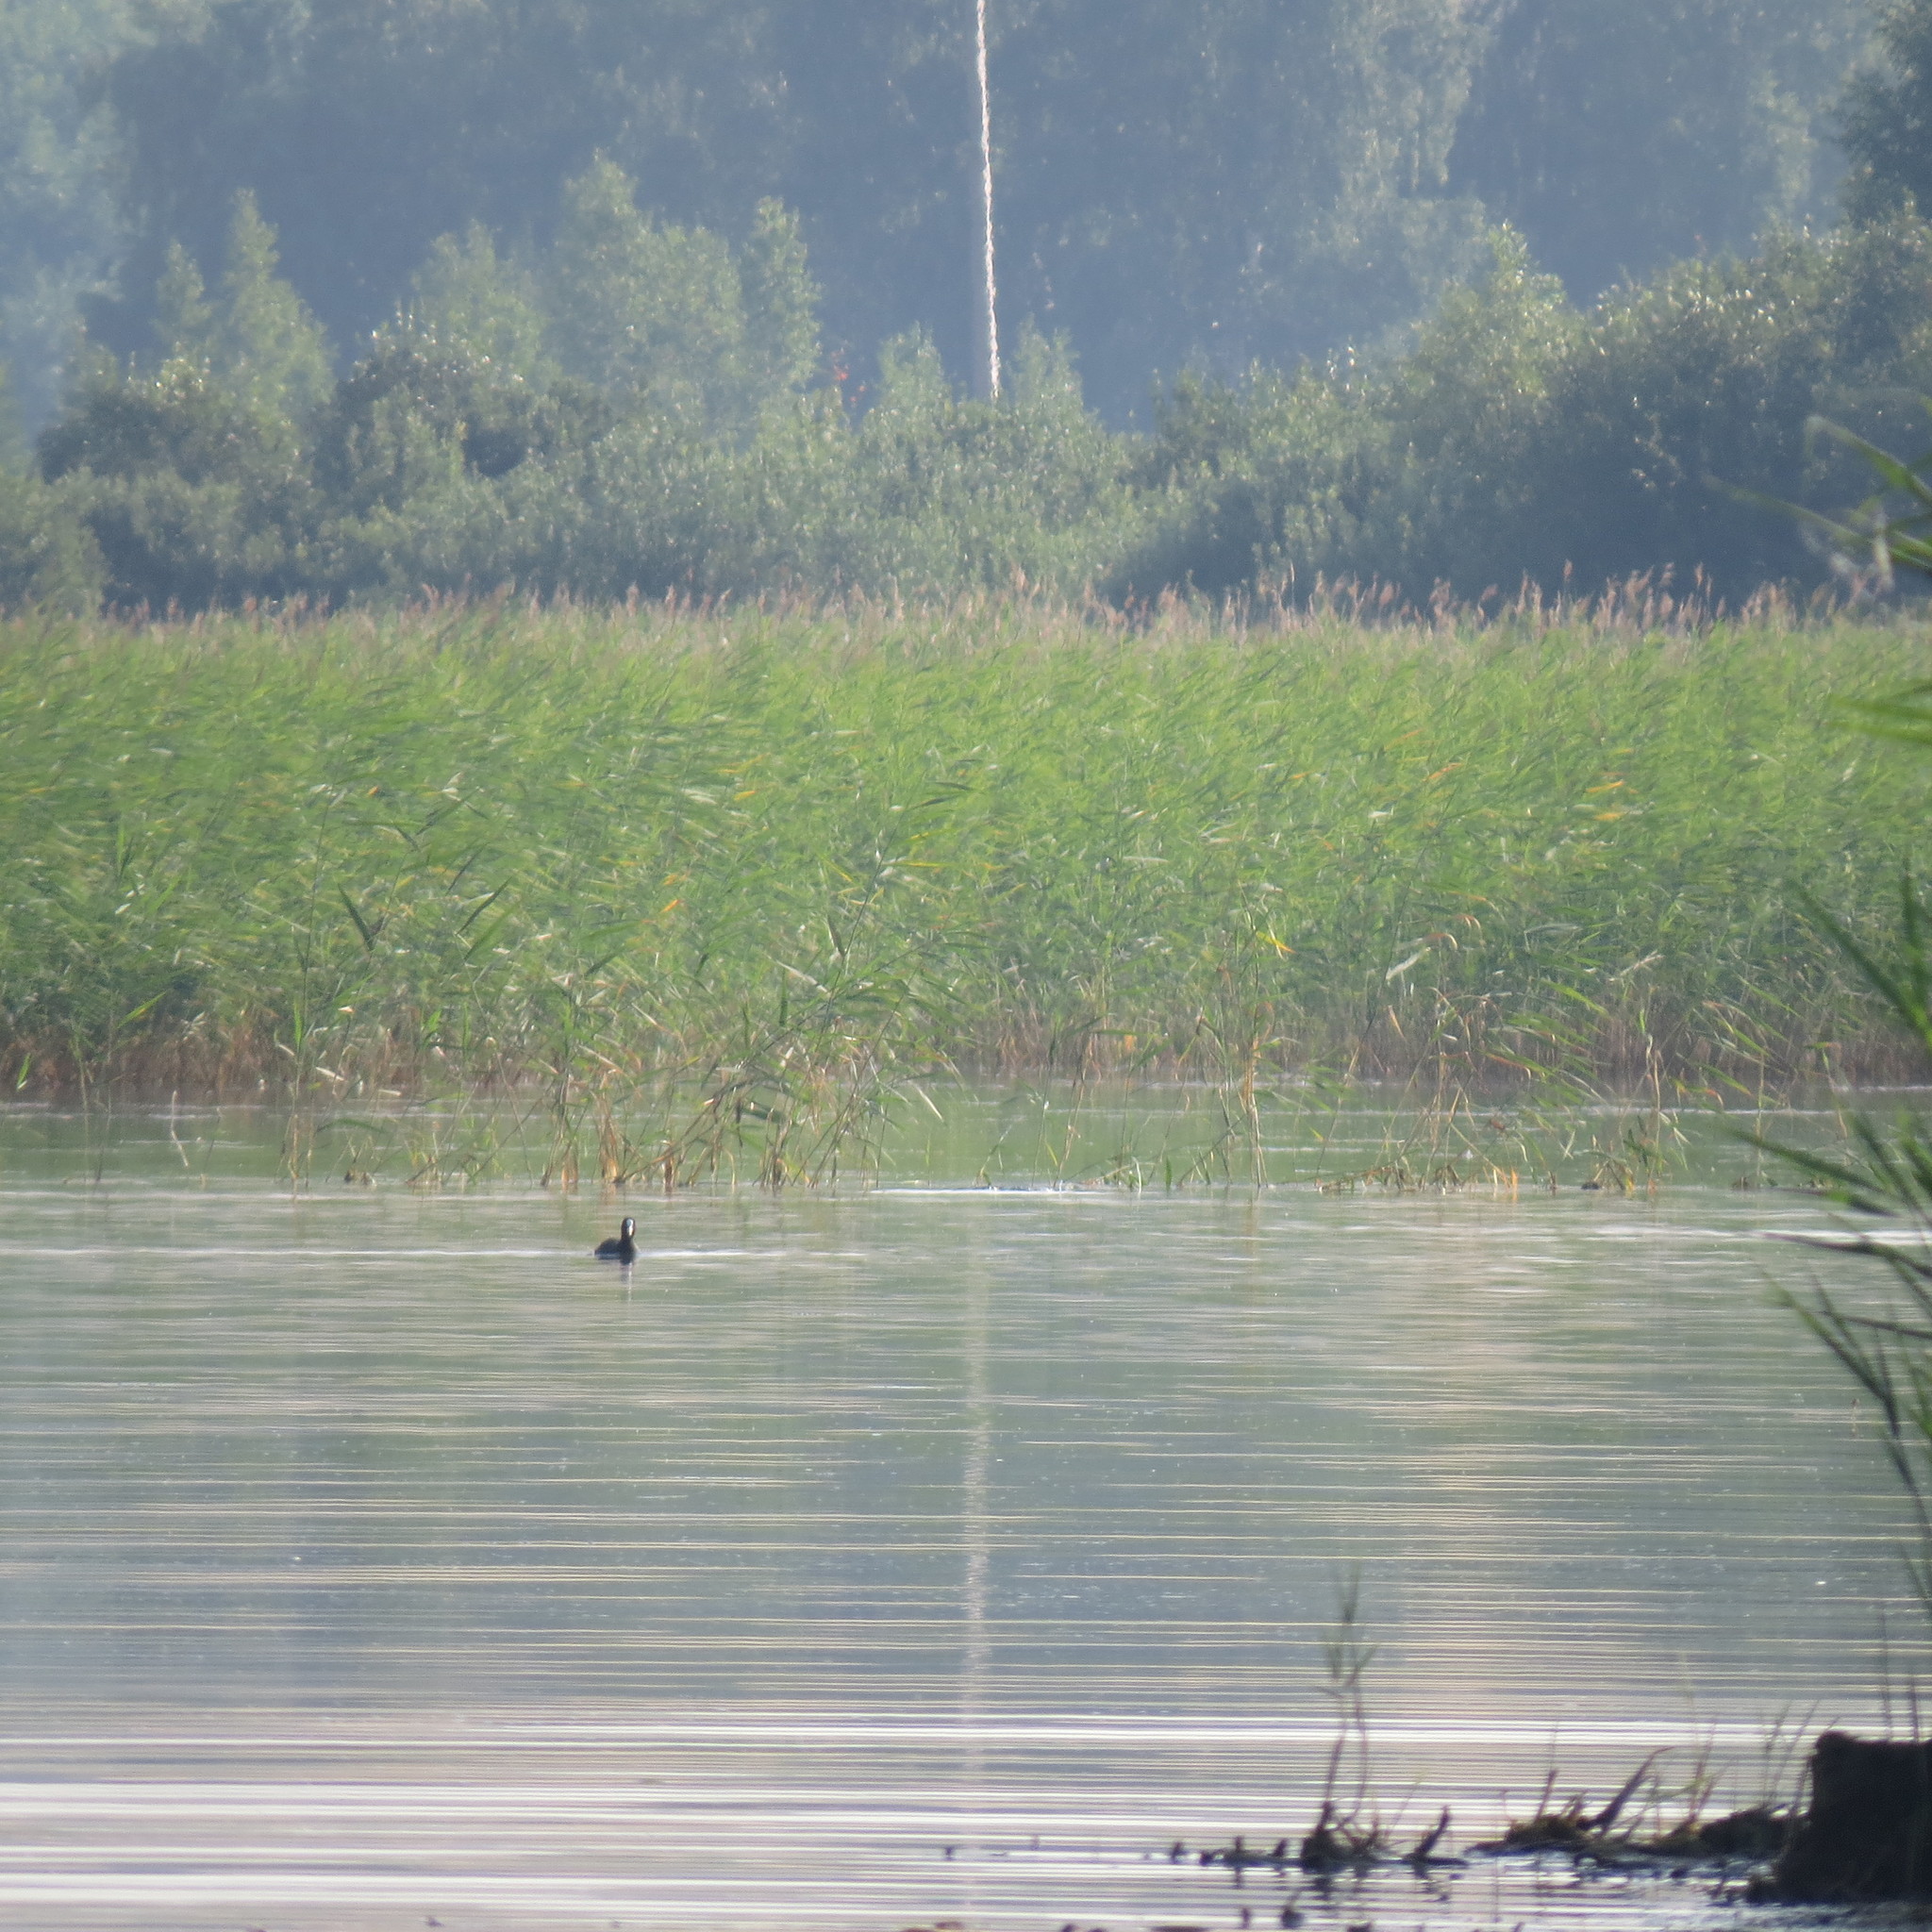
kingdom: Animalia
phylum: Chordata
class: Aves
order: Gruiformes
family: Rallidae
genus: Fulica
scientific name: Fulica atra
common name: Eurasian coot
